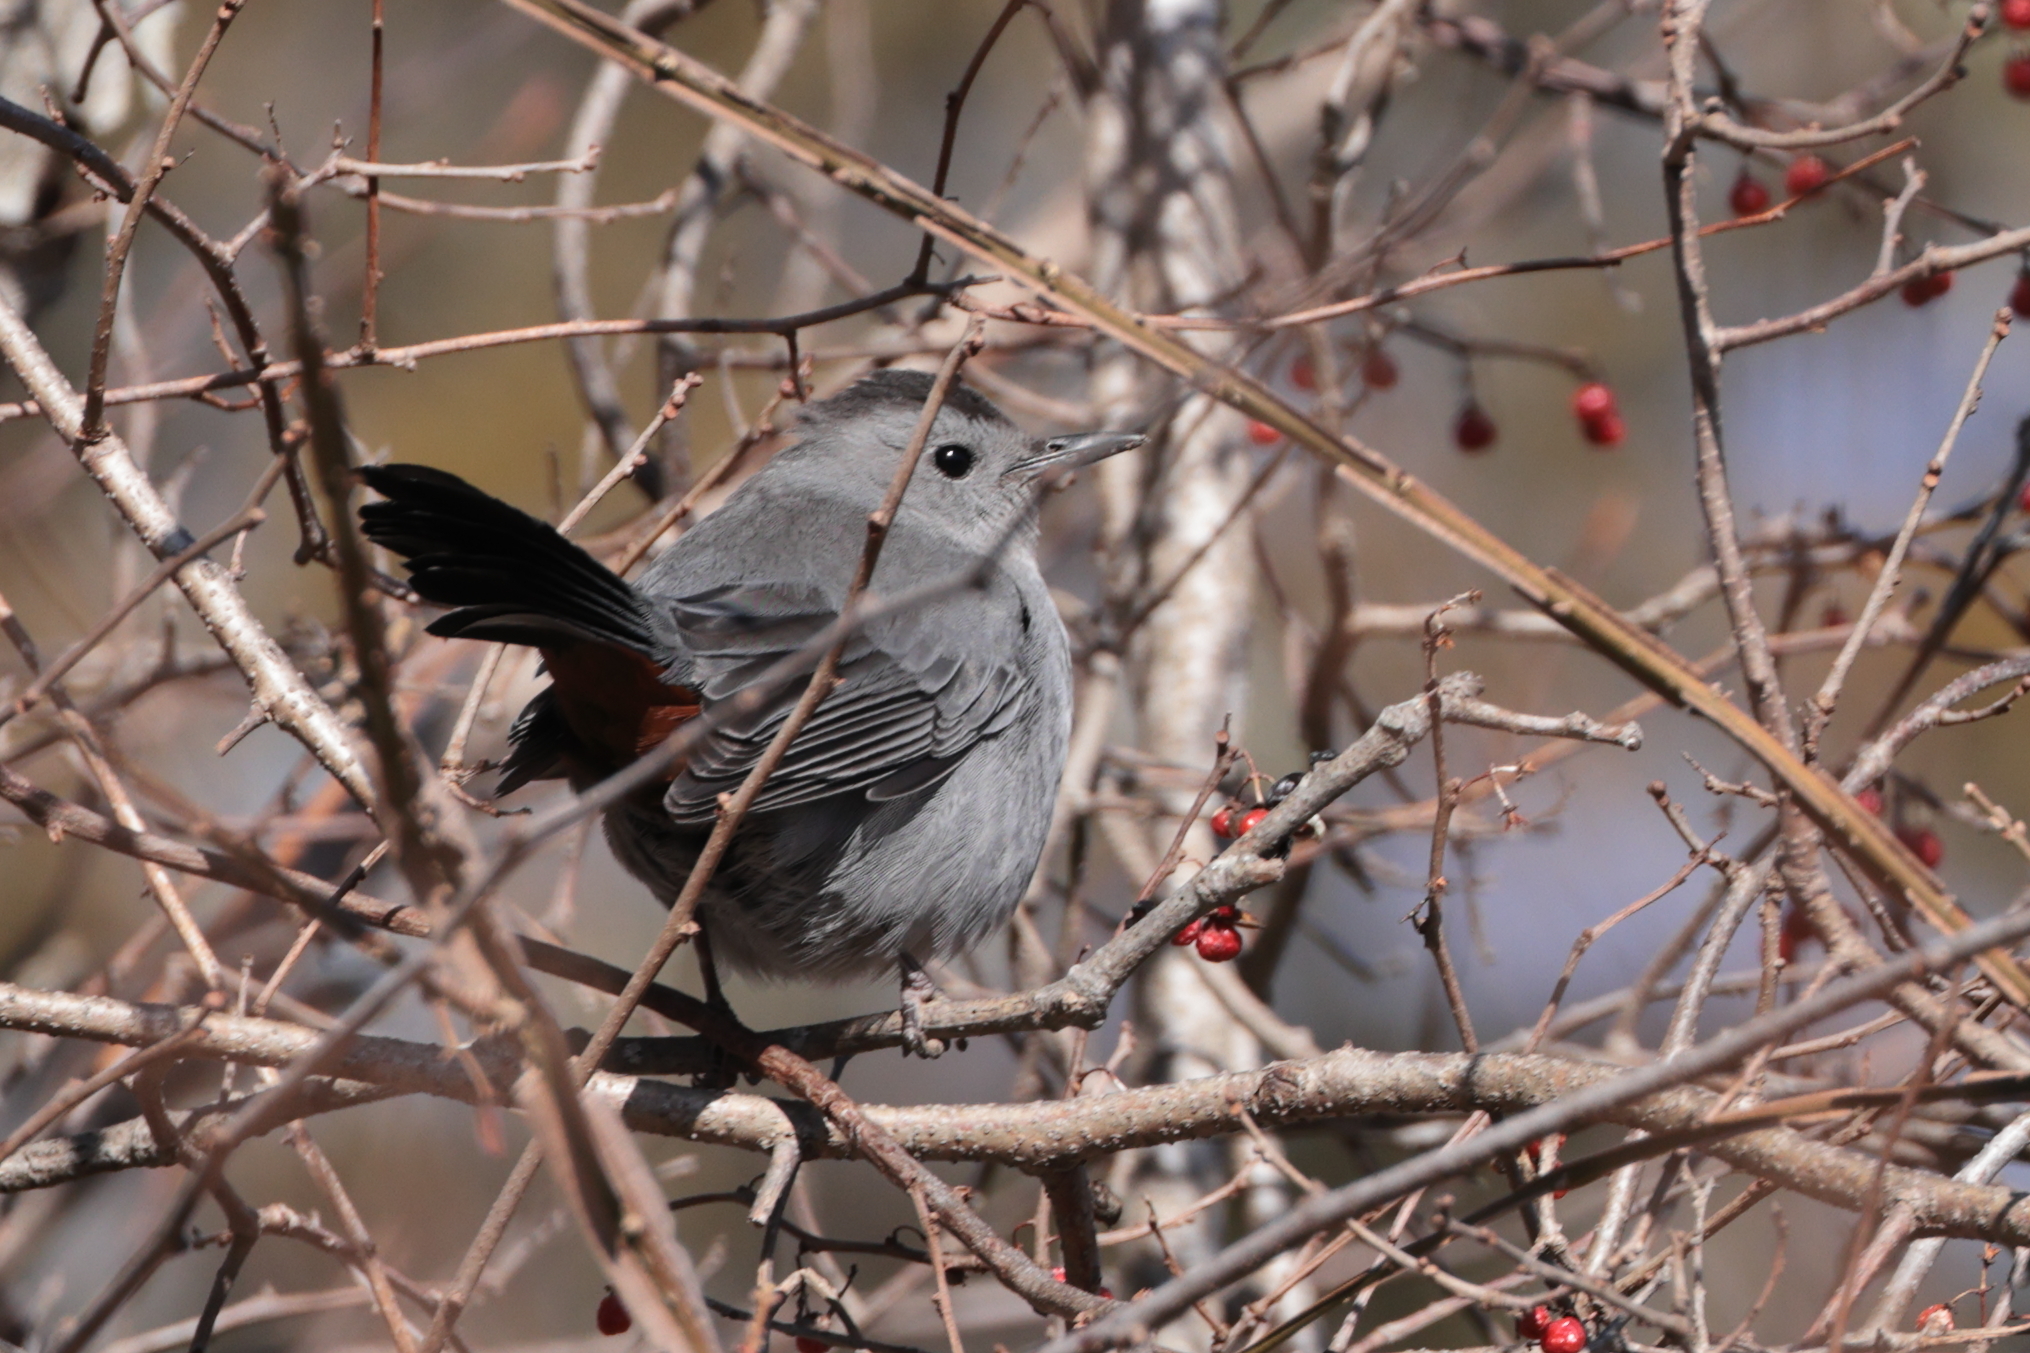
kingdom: Animalia
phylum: Chordata
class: Aves
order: Passeriformes
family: Mimidae
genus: Dumetella
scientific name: Dumetella carolinensis
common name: Gray catbird
